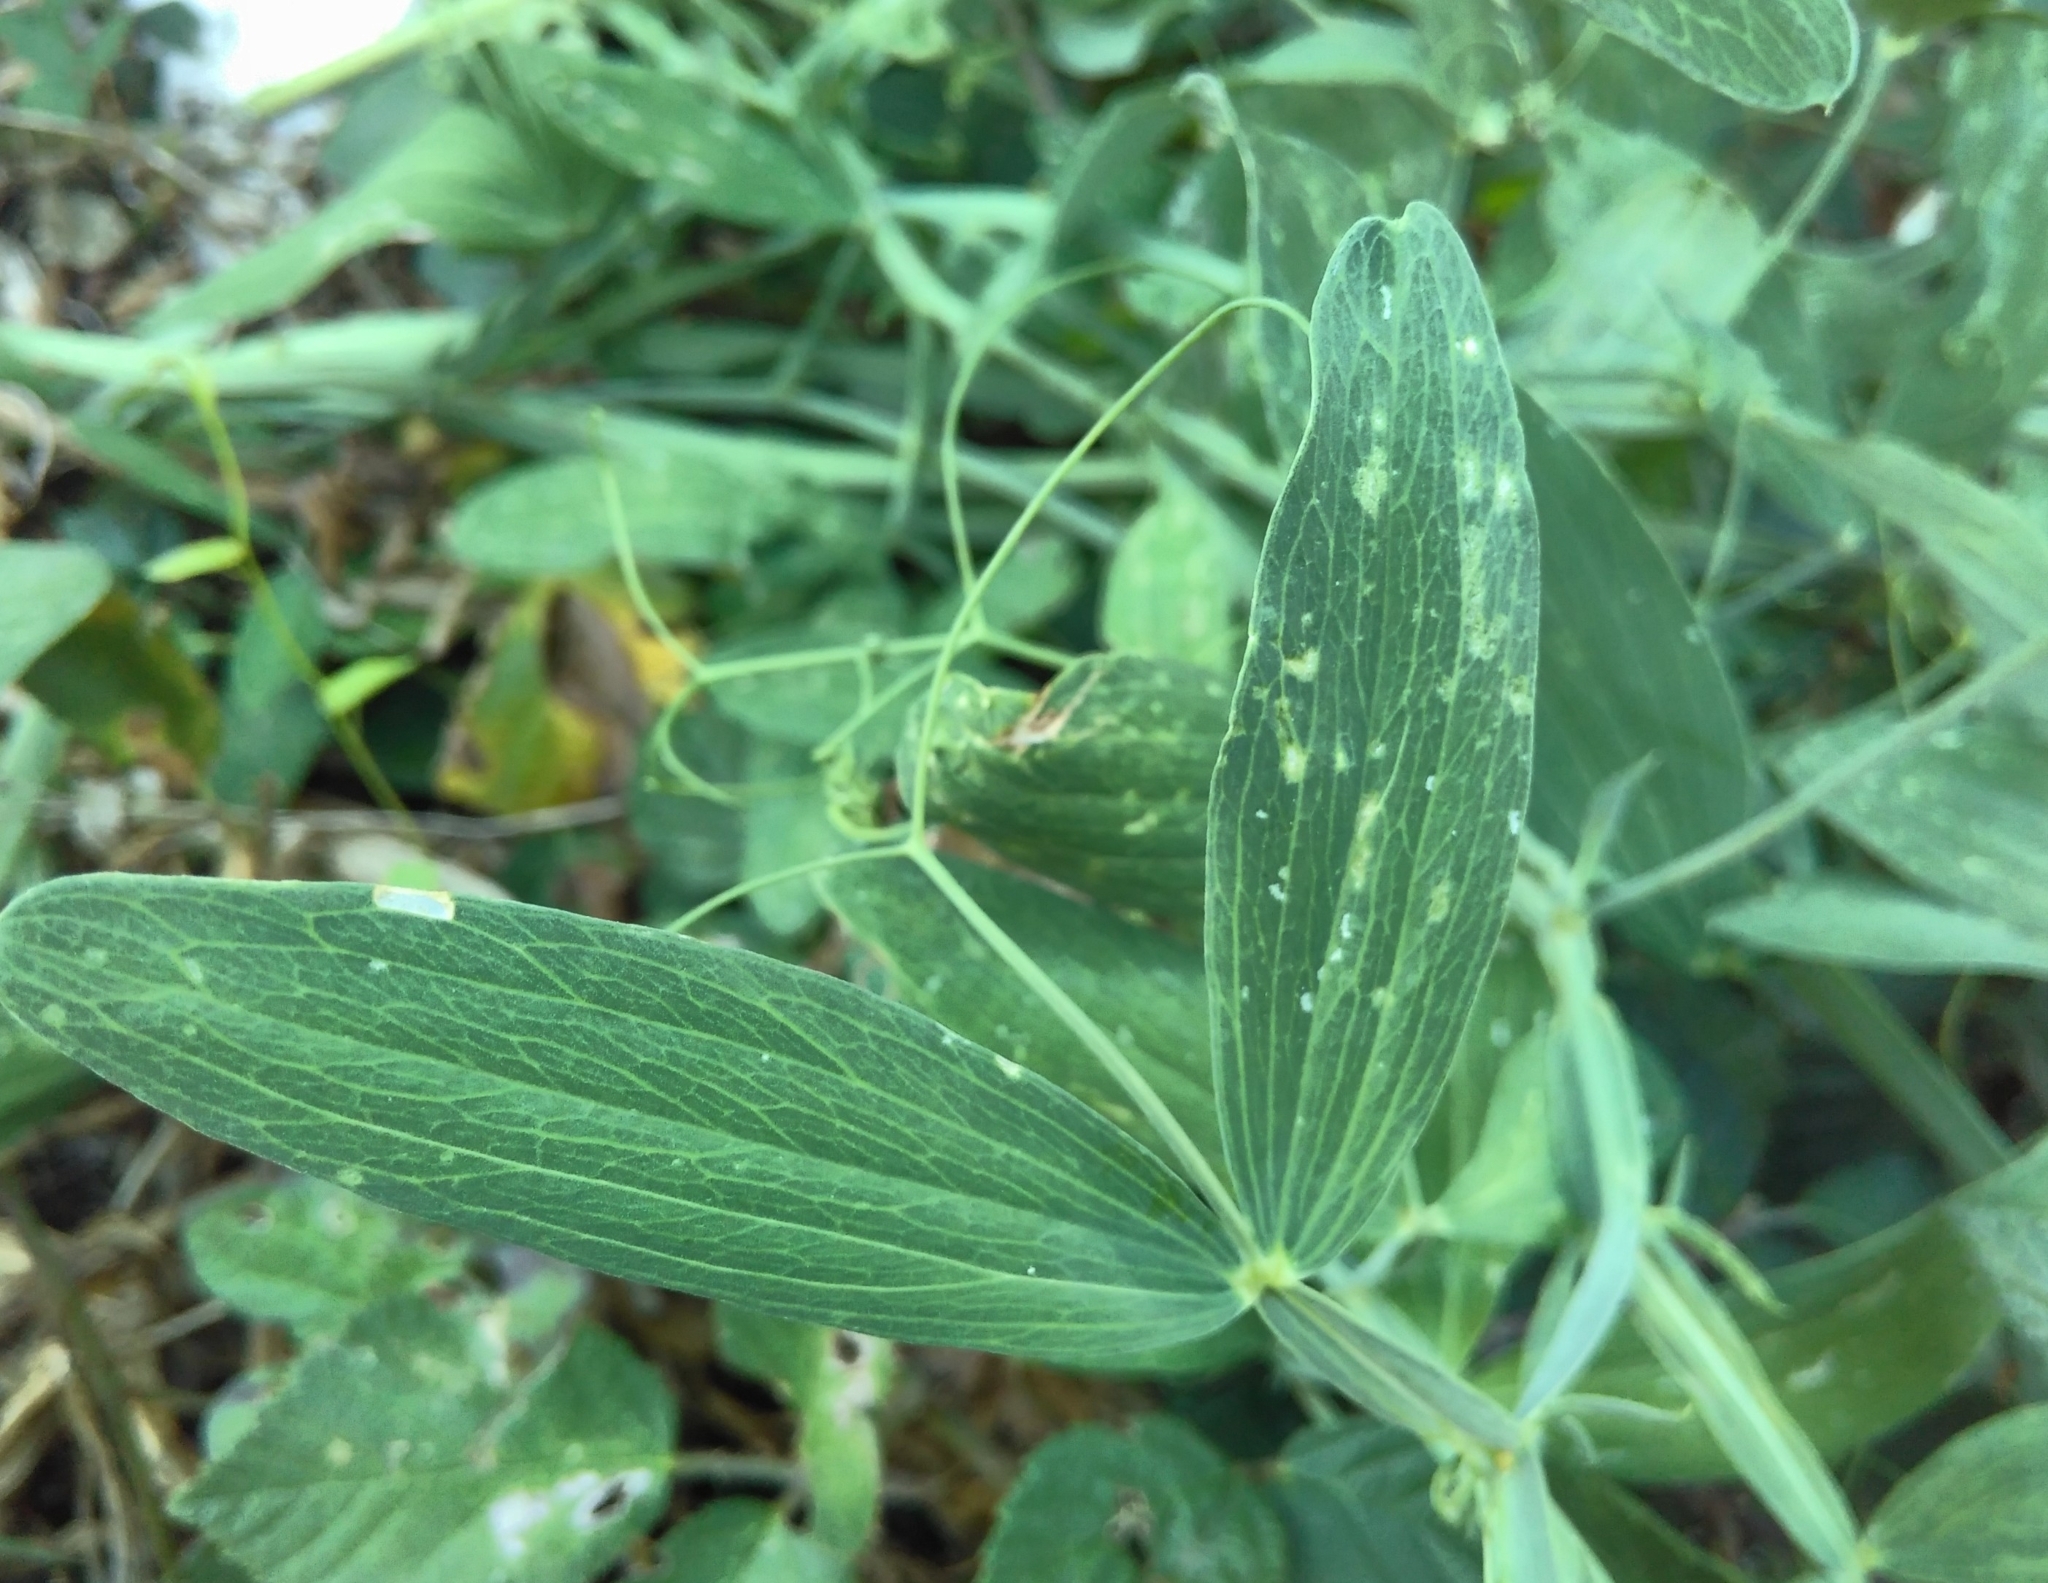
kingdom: Plantae
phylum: Tracheophyta
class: Magnoliopsida
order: Fabales
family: Fabaceae
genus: Lathyrus
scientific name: Lathyrus latifolius
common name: Perennial pea
